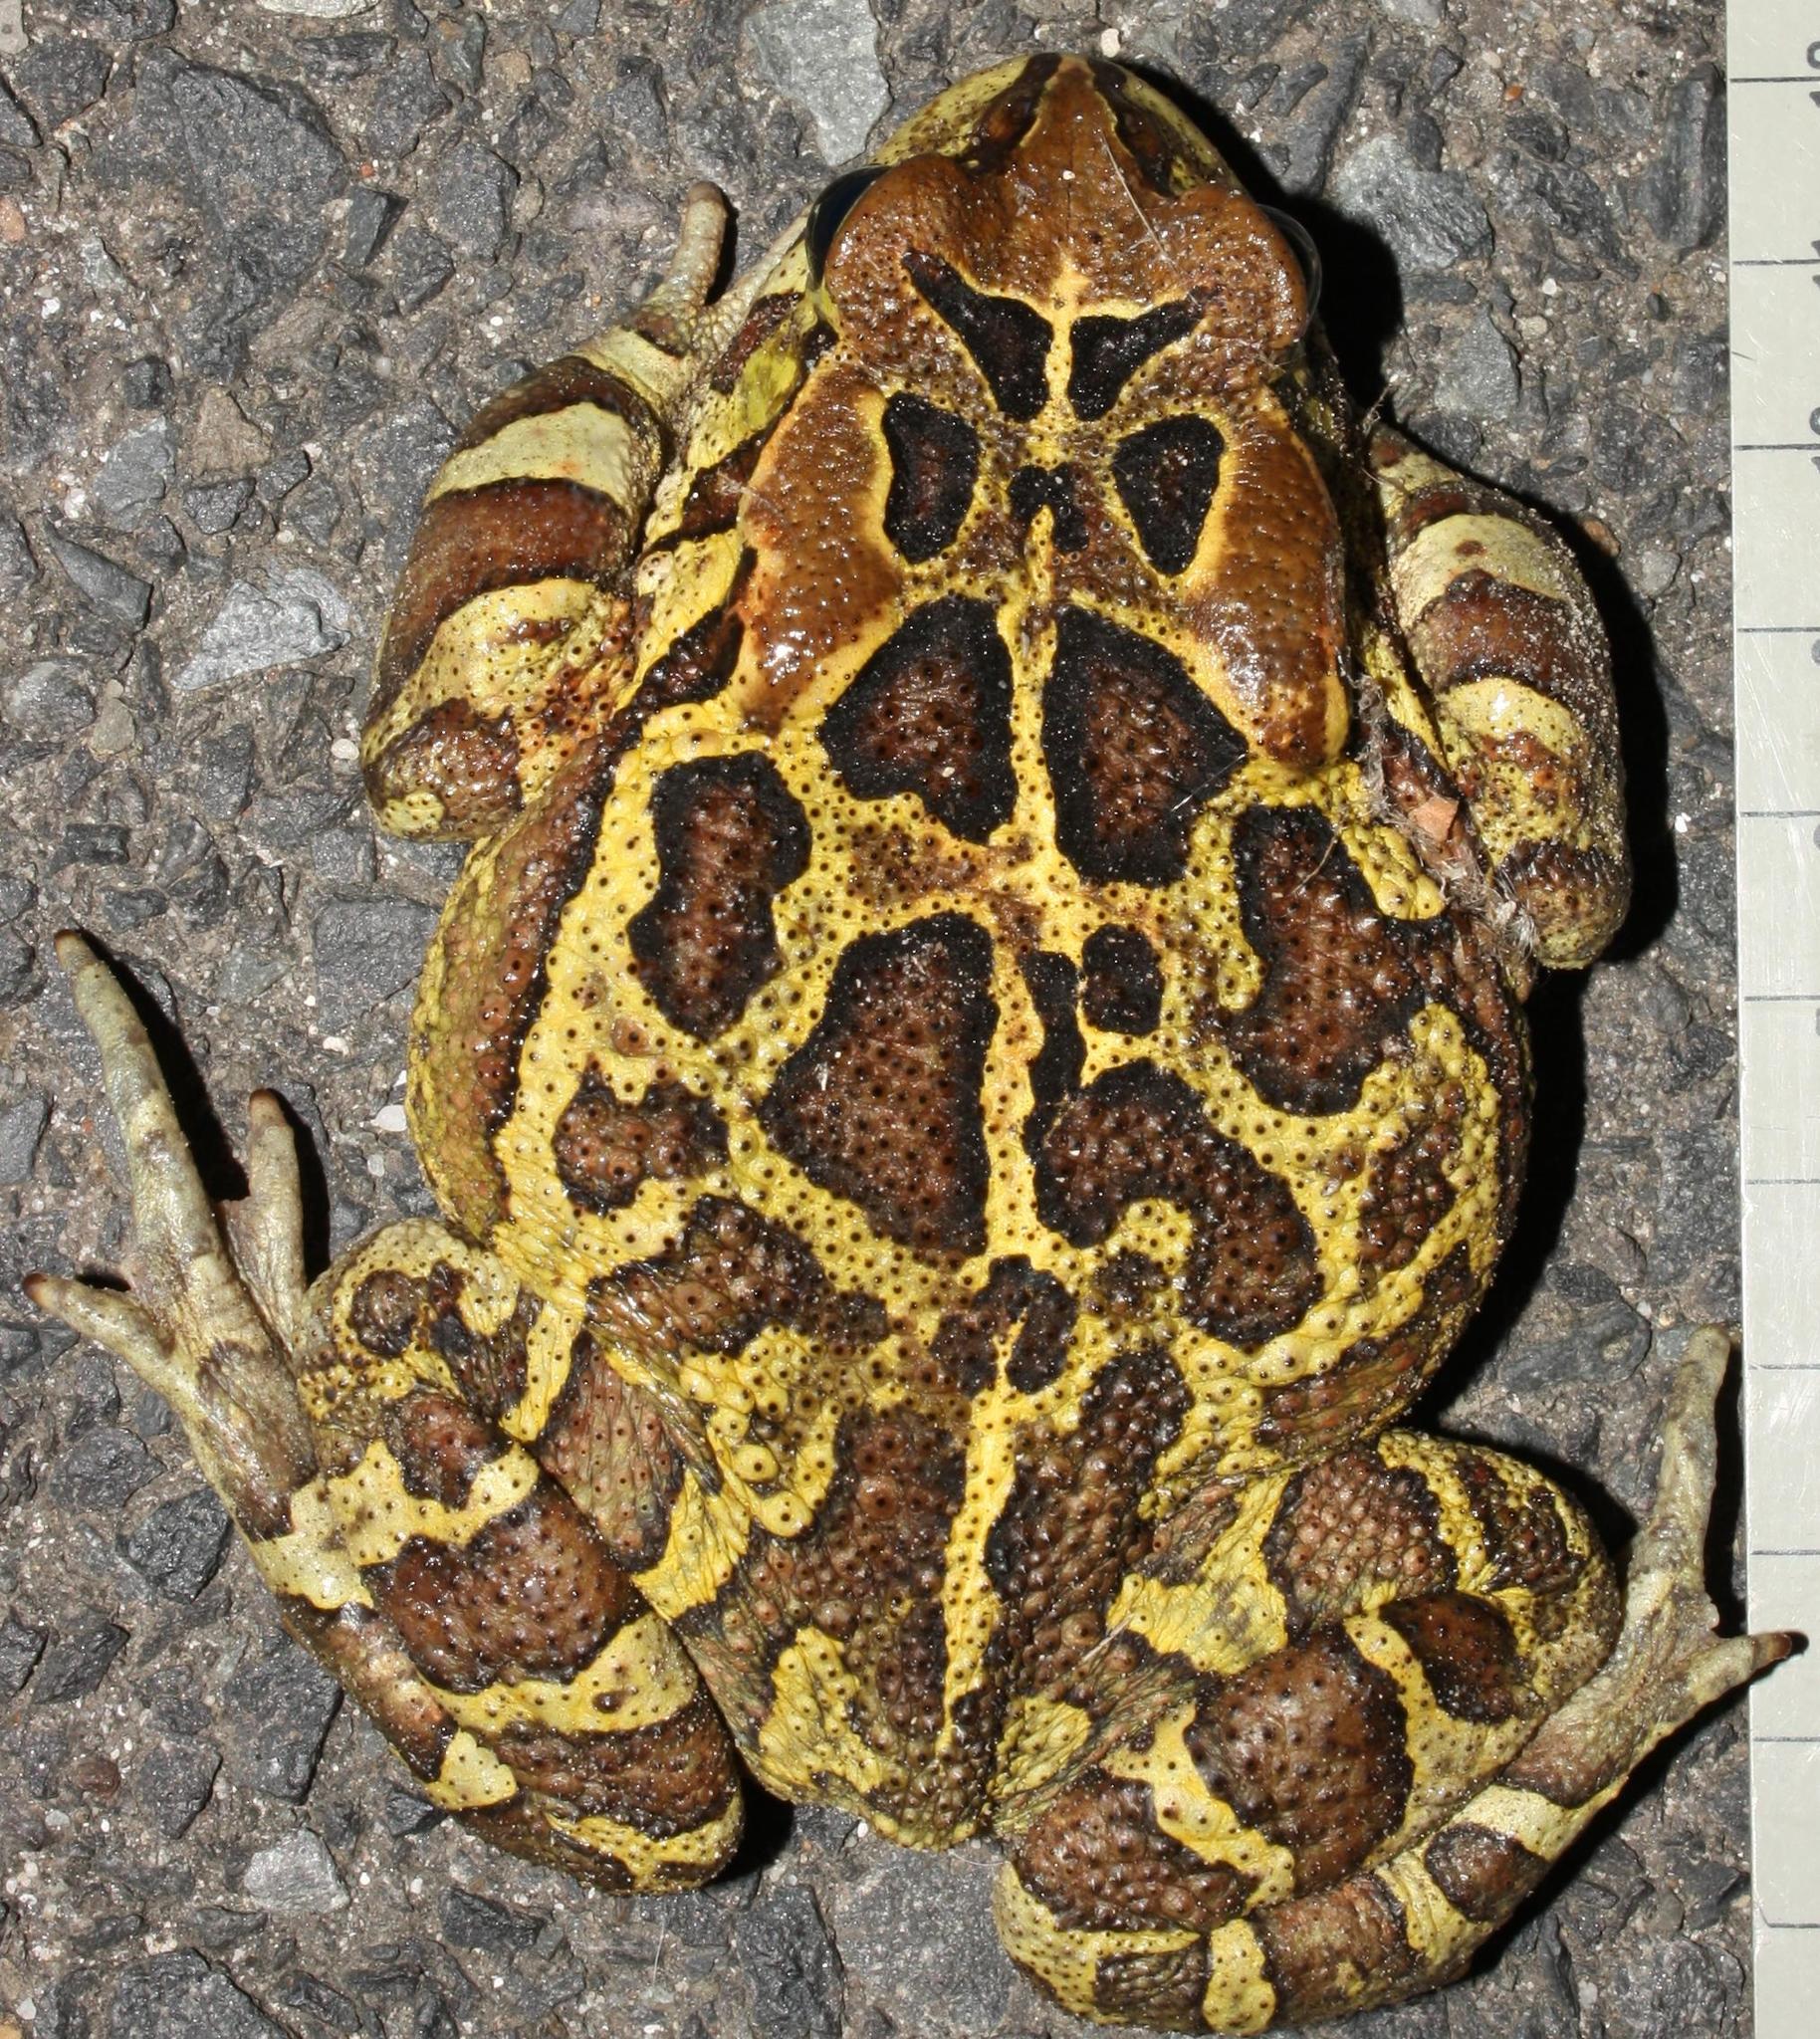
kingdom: Animalia
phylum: Chordata
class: Amphibia
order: Anura
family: Bufonidae
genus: Sclerophrys
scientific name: Sclerophrys pantherina
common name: Panther toad
